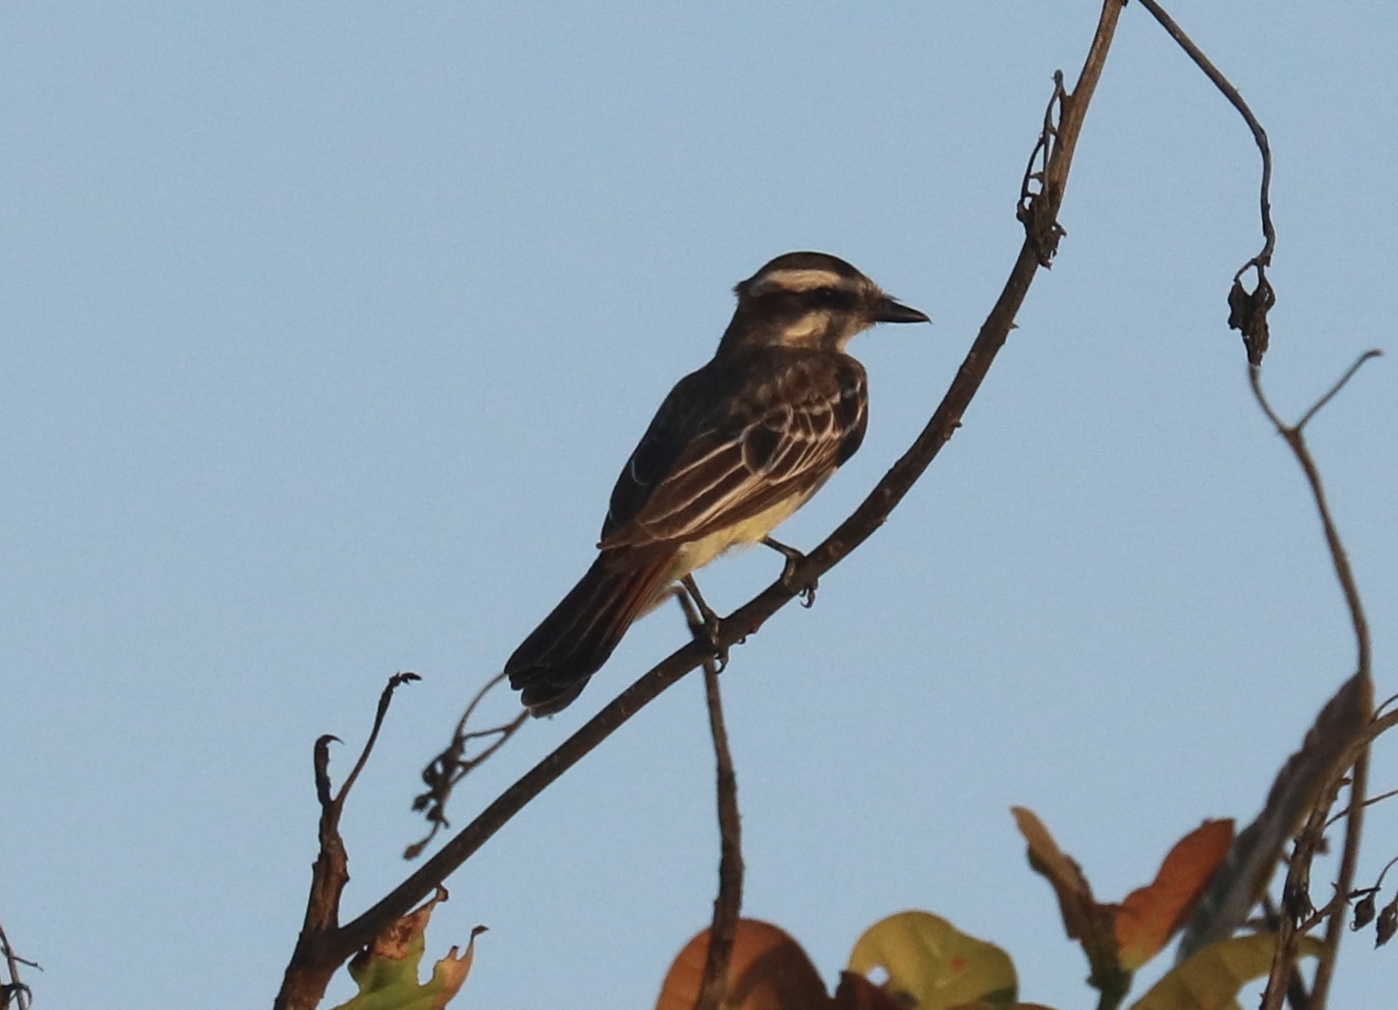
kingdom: Animalia
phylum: Chordata
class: Aves
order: Passeriformes
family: Tyrannidae
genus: Empidonomus
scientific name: Empidonomus varius
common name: Variegated flycatcher
